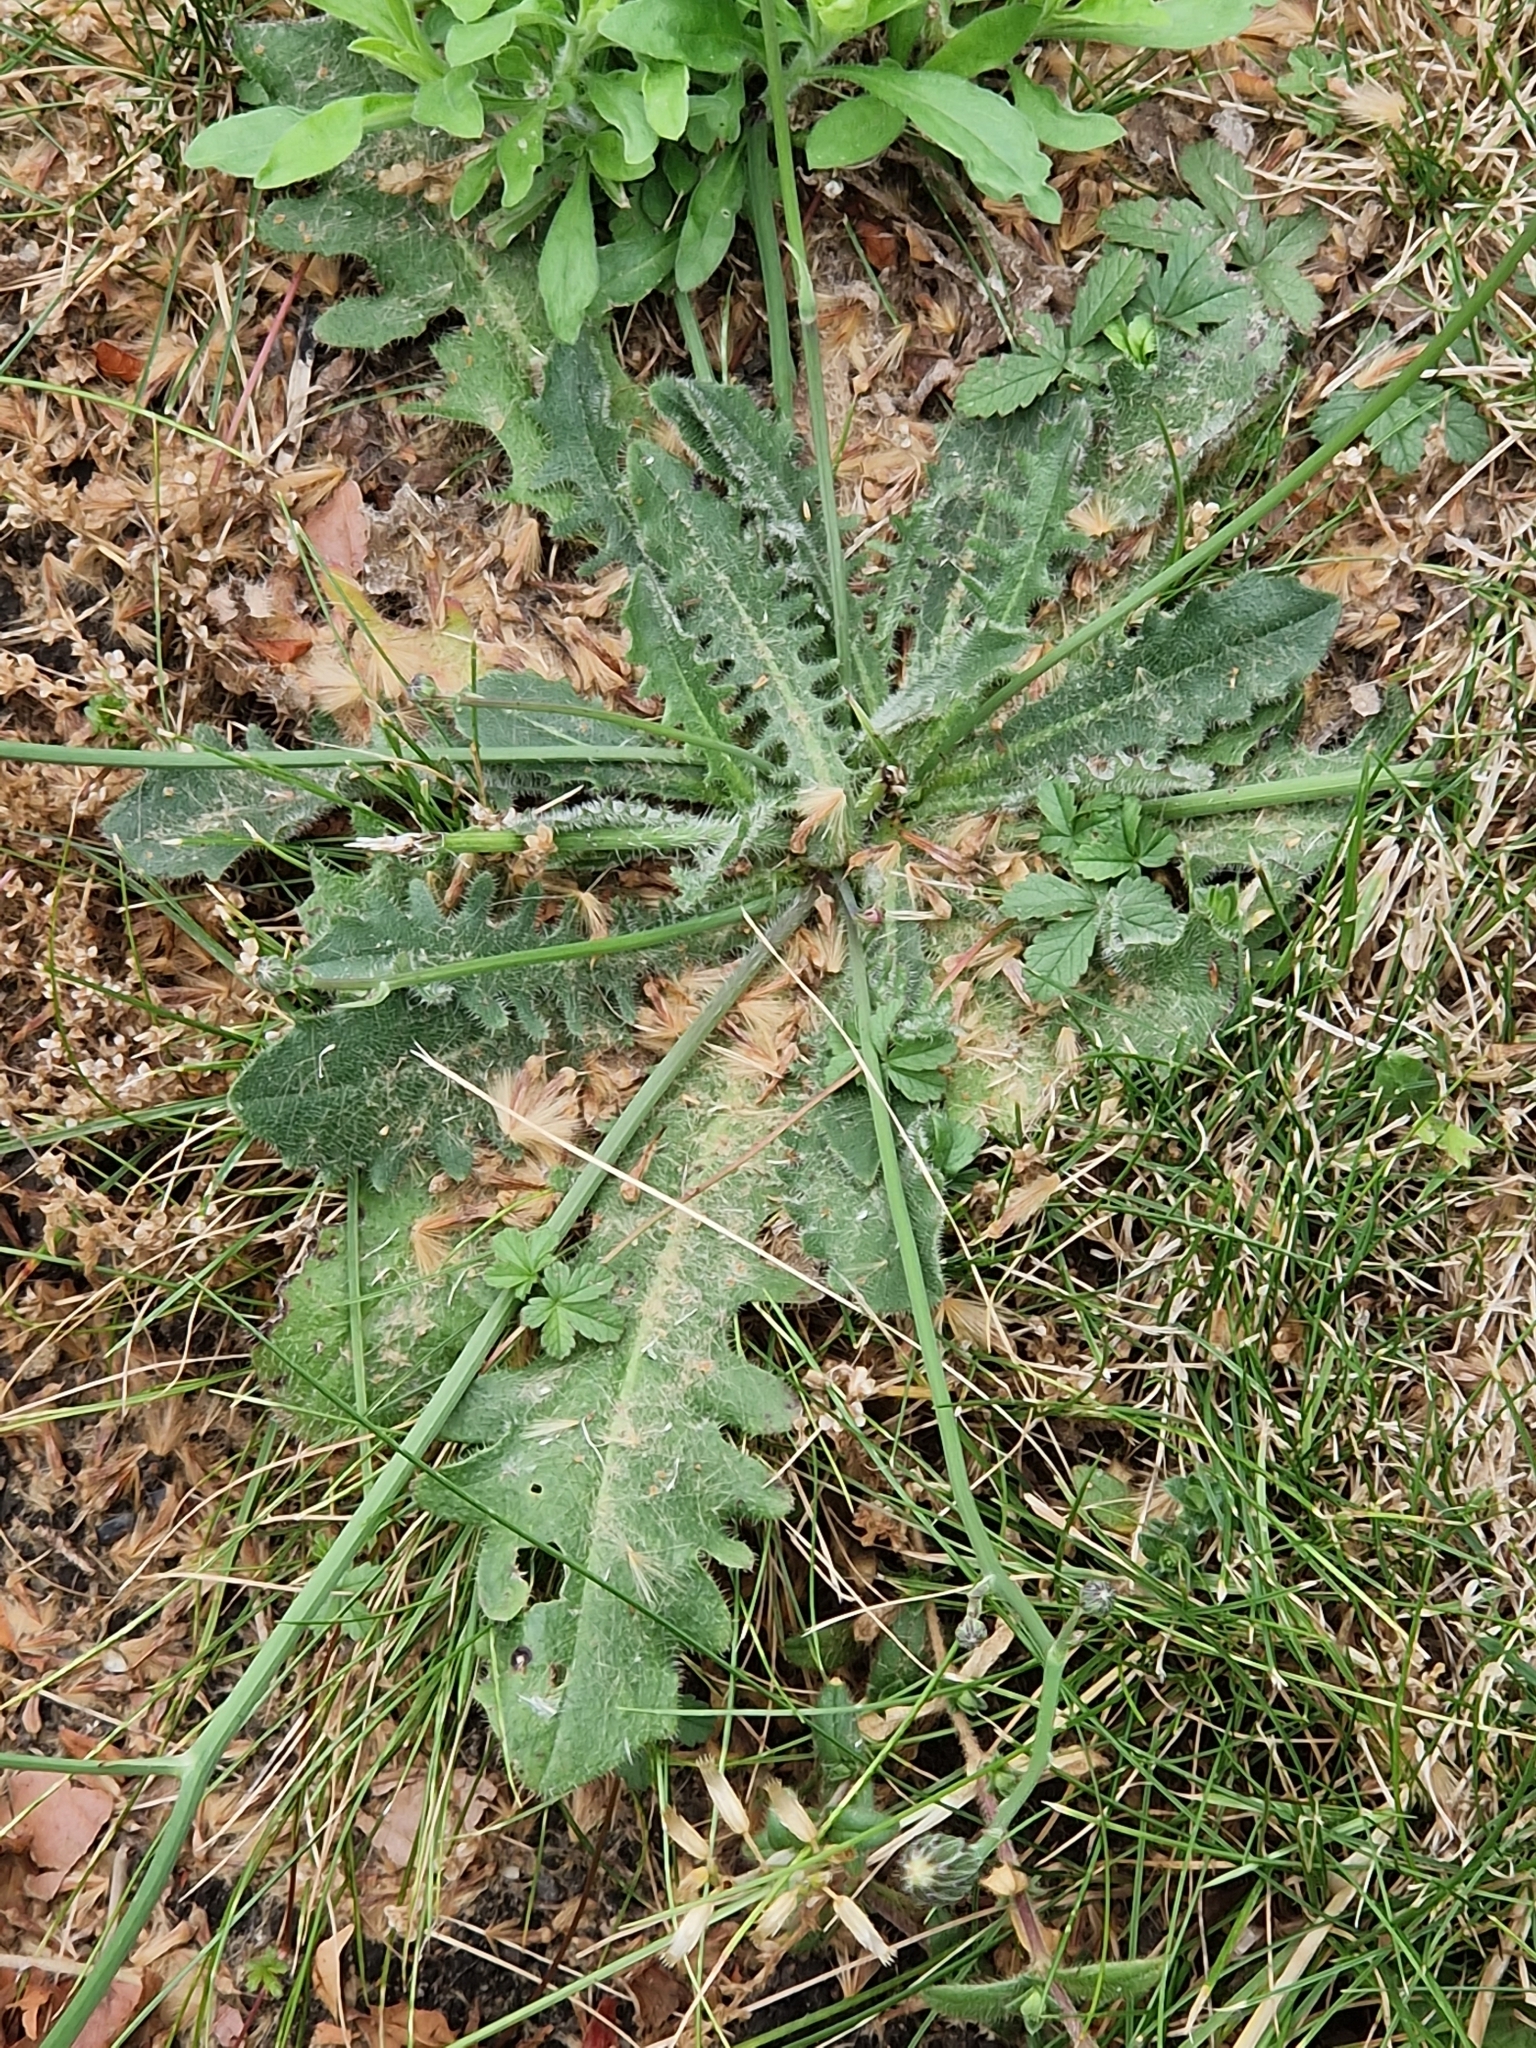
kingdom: Plantae
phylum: Tracheophyta
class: Magnoliopsida
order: Asterales
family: Asteraceae
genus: Hypochaeris
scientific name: Hypochaeris radicata
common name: Flatweed
